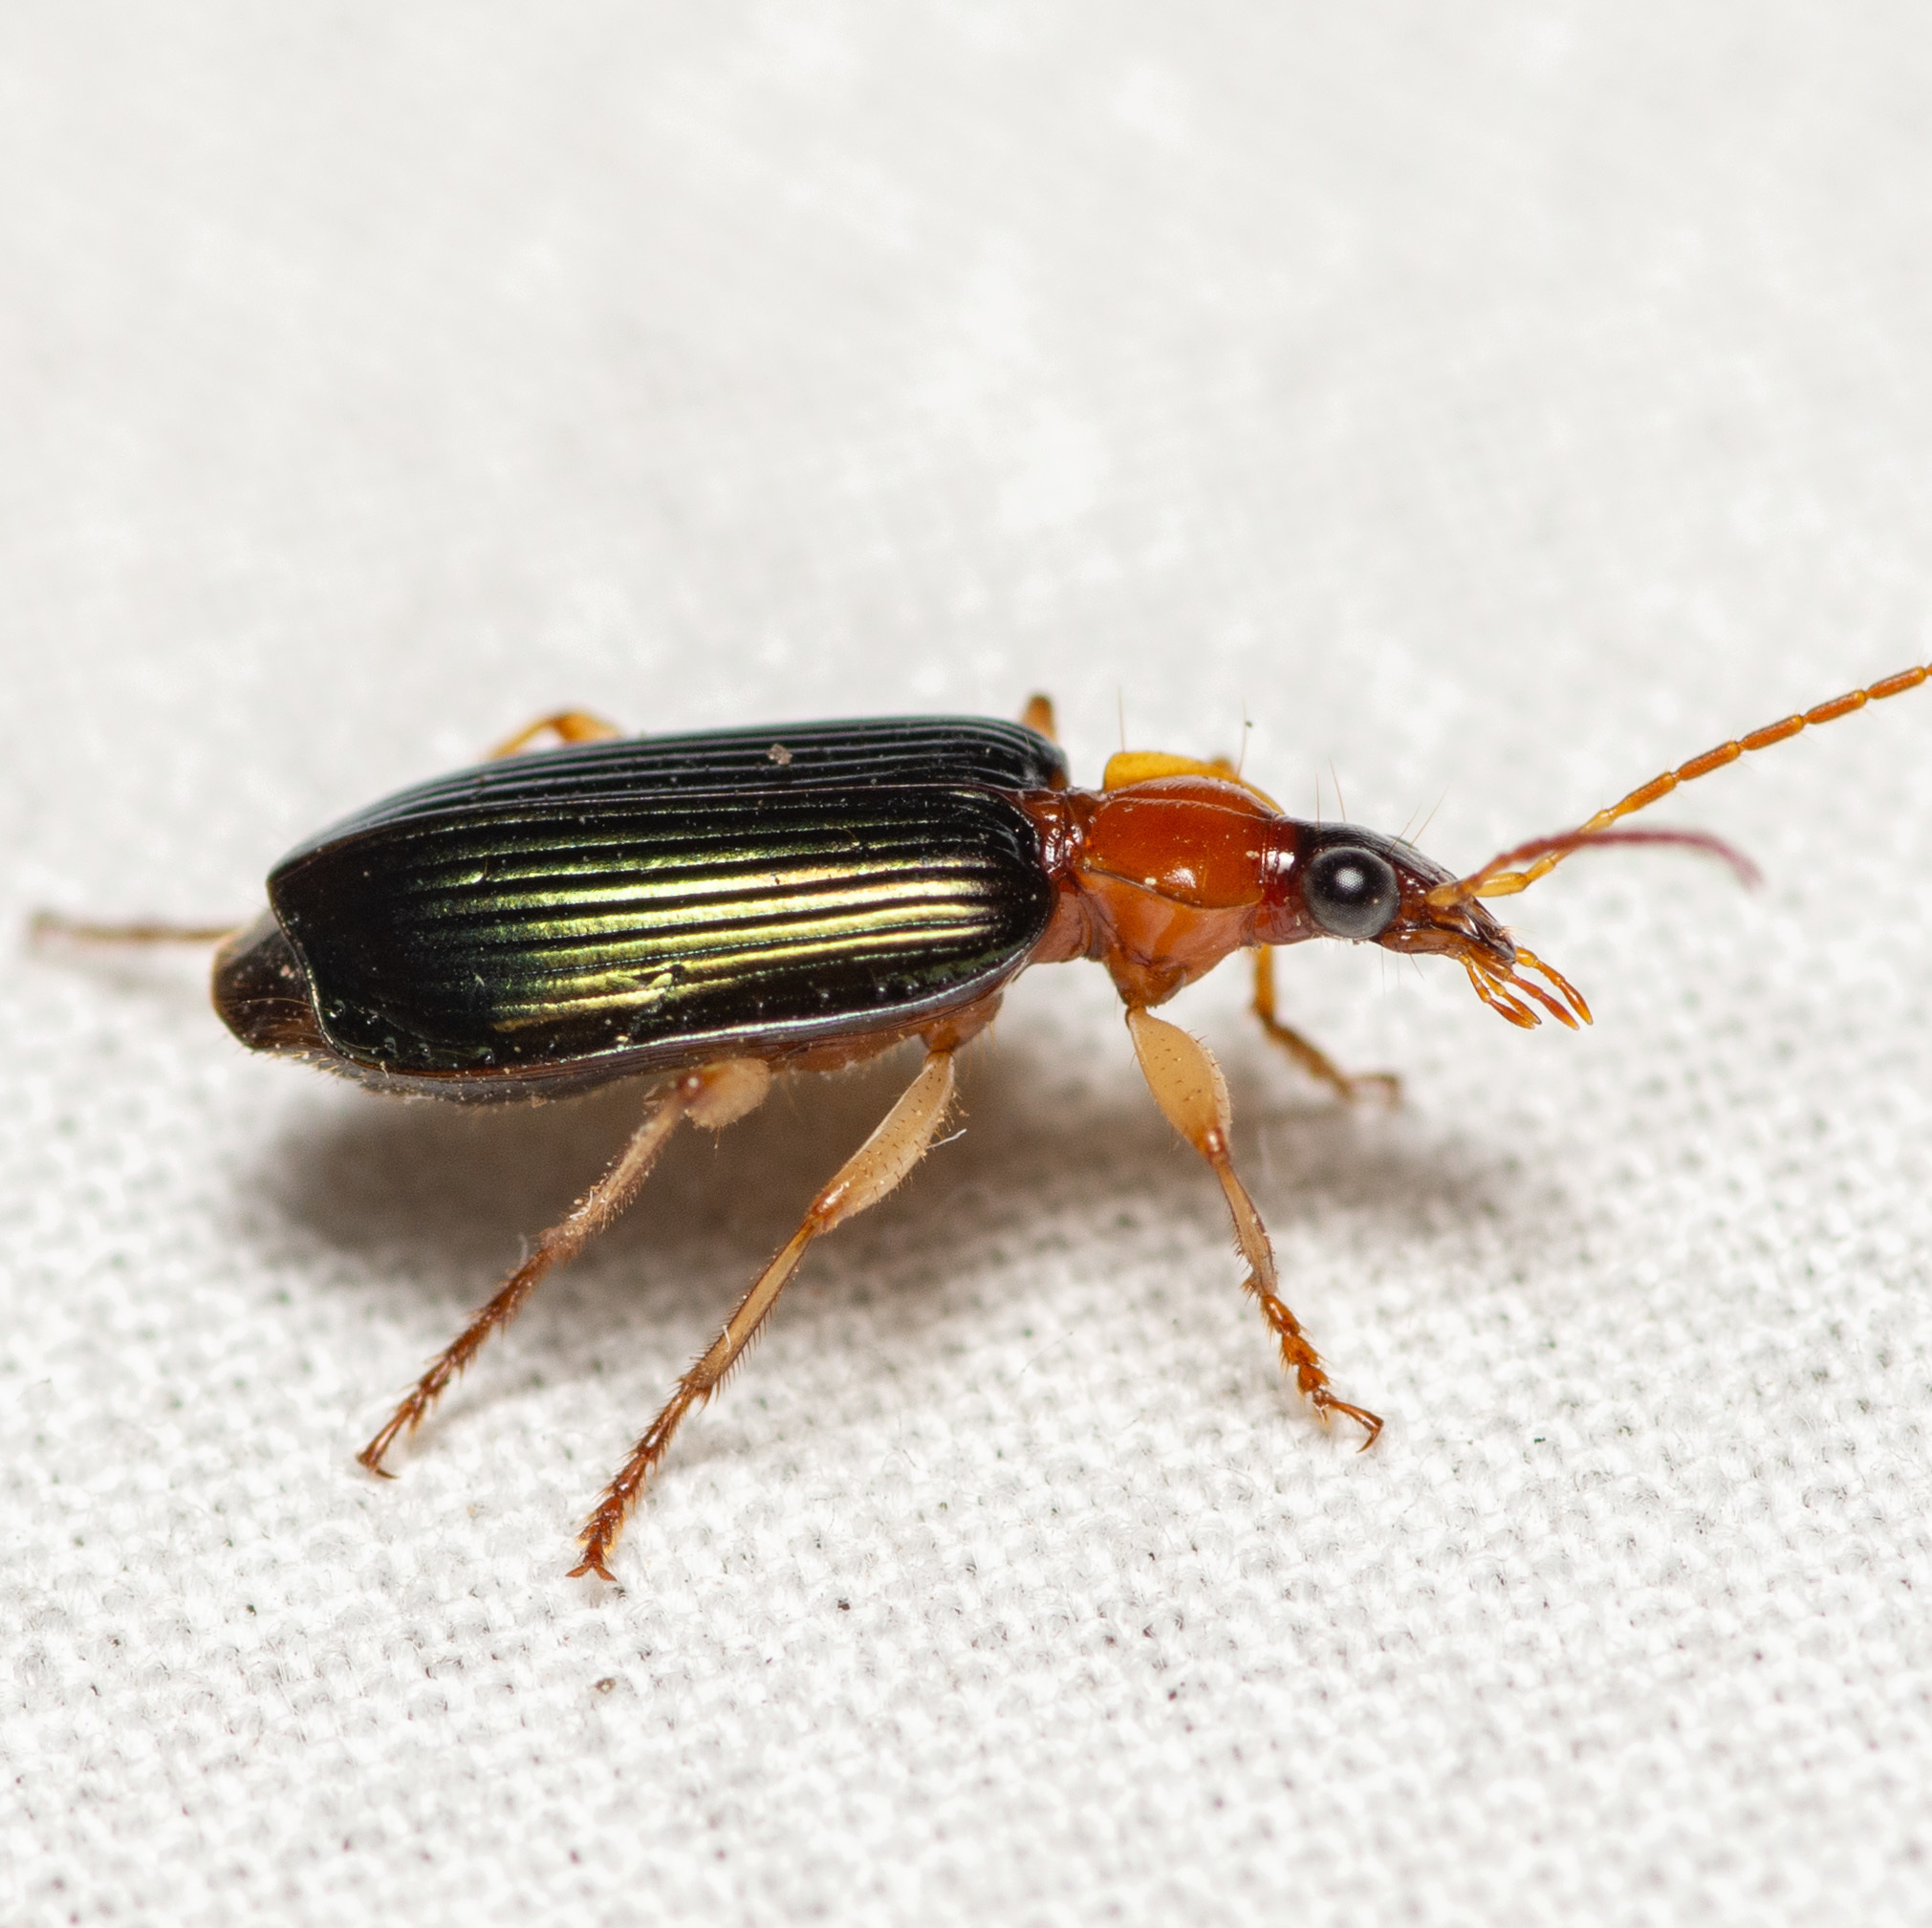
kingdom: Animalia
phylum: Arthropoda
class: Insecta
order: Coleoptera
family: Carabidae
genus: Lebia
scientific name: Lebia tricolor
